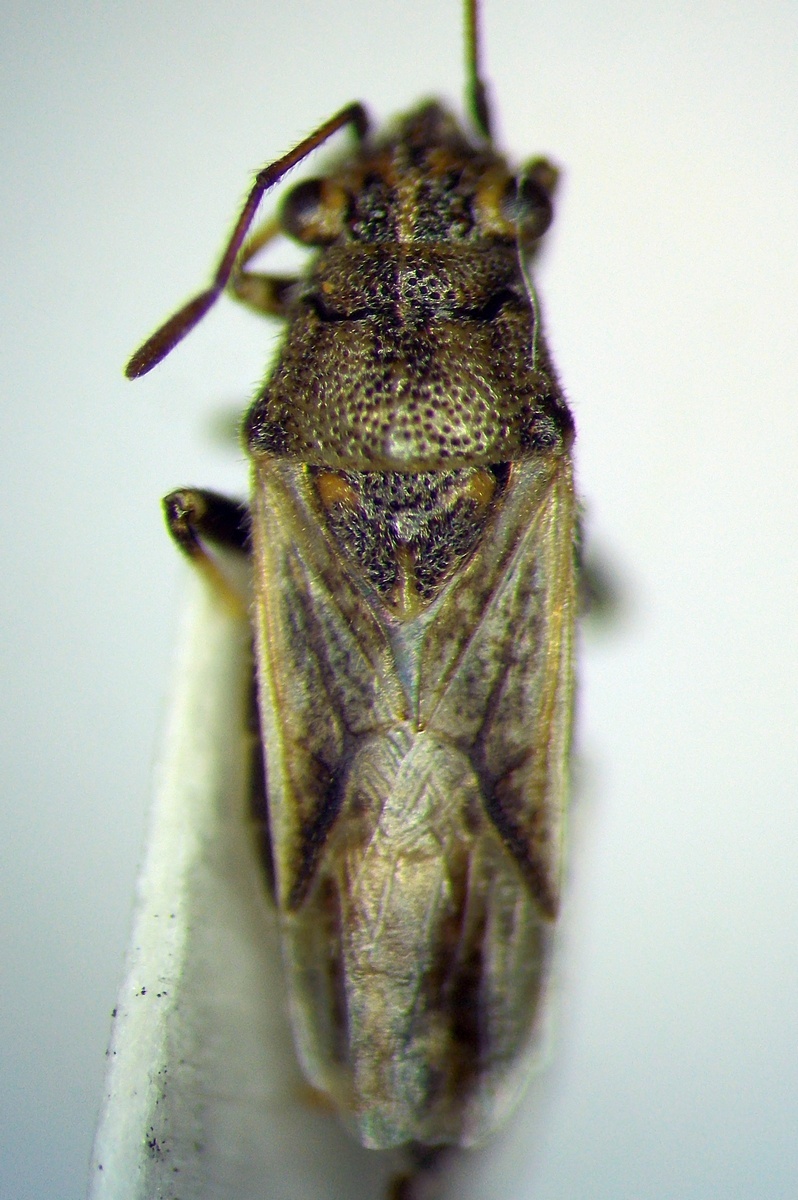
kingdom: Animalia
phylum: Arthropoda
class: Insecta
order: Hemiptera
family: Lygaeidae
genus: Ortholomus
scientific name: Ortholomus punctipennis
